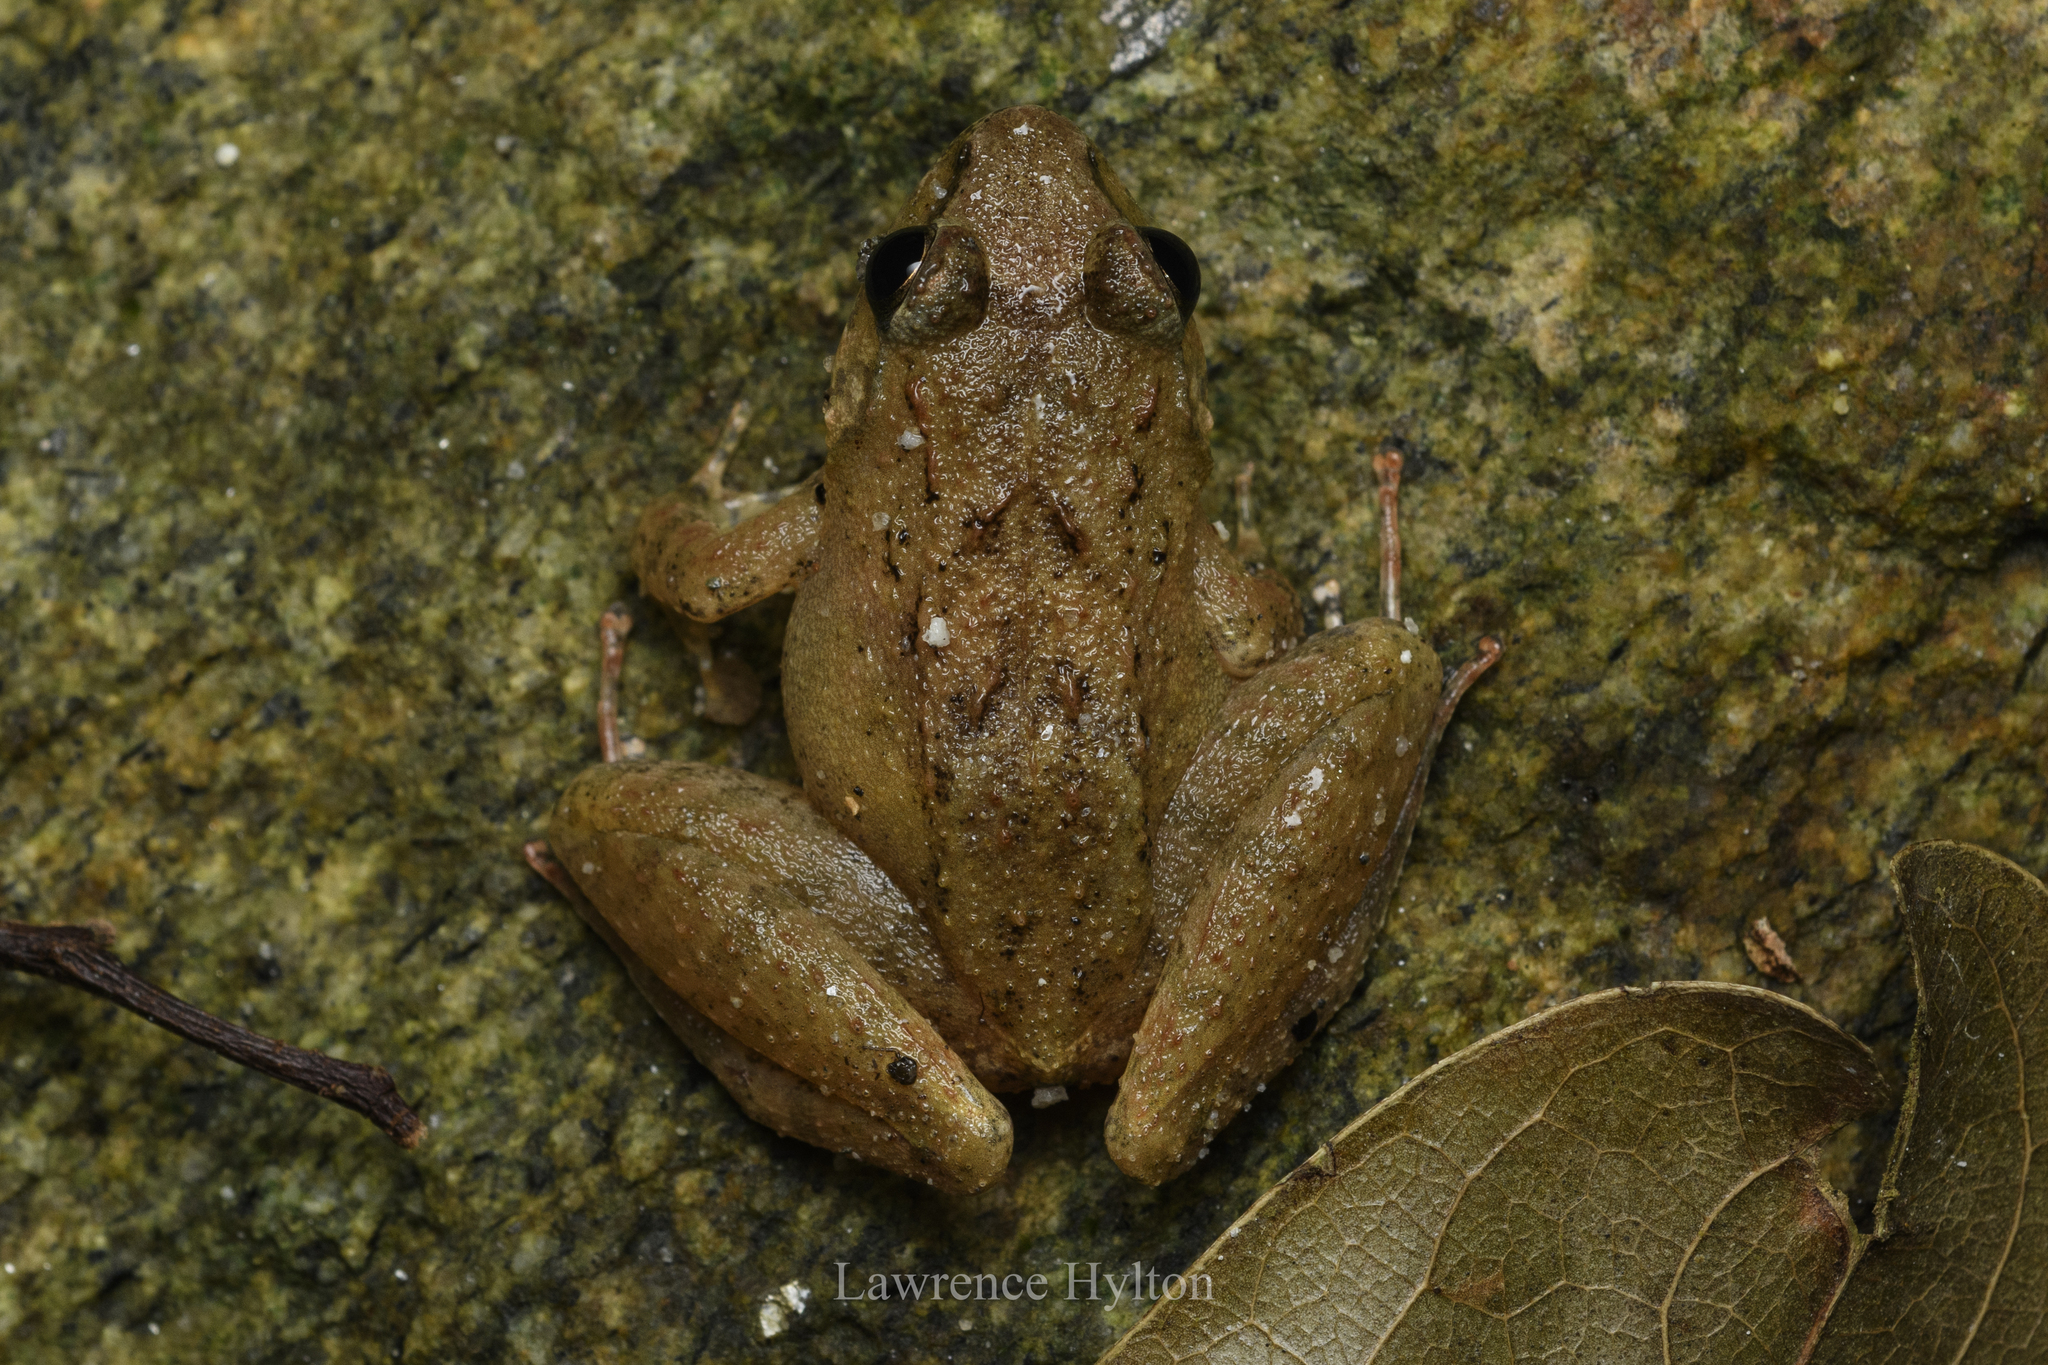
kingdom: Animalia
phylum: Chordata
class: Amphibia
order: Anura
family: Dicroglossidae
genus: Limnonectes
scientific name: Limnonectes hascheanus
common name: Hill forest frog
